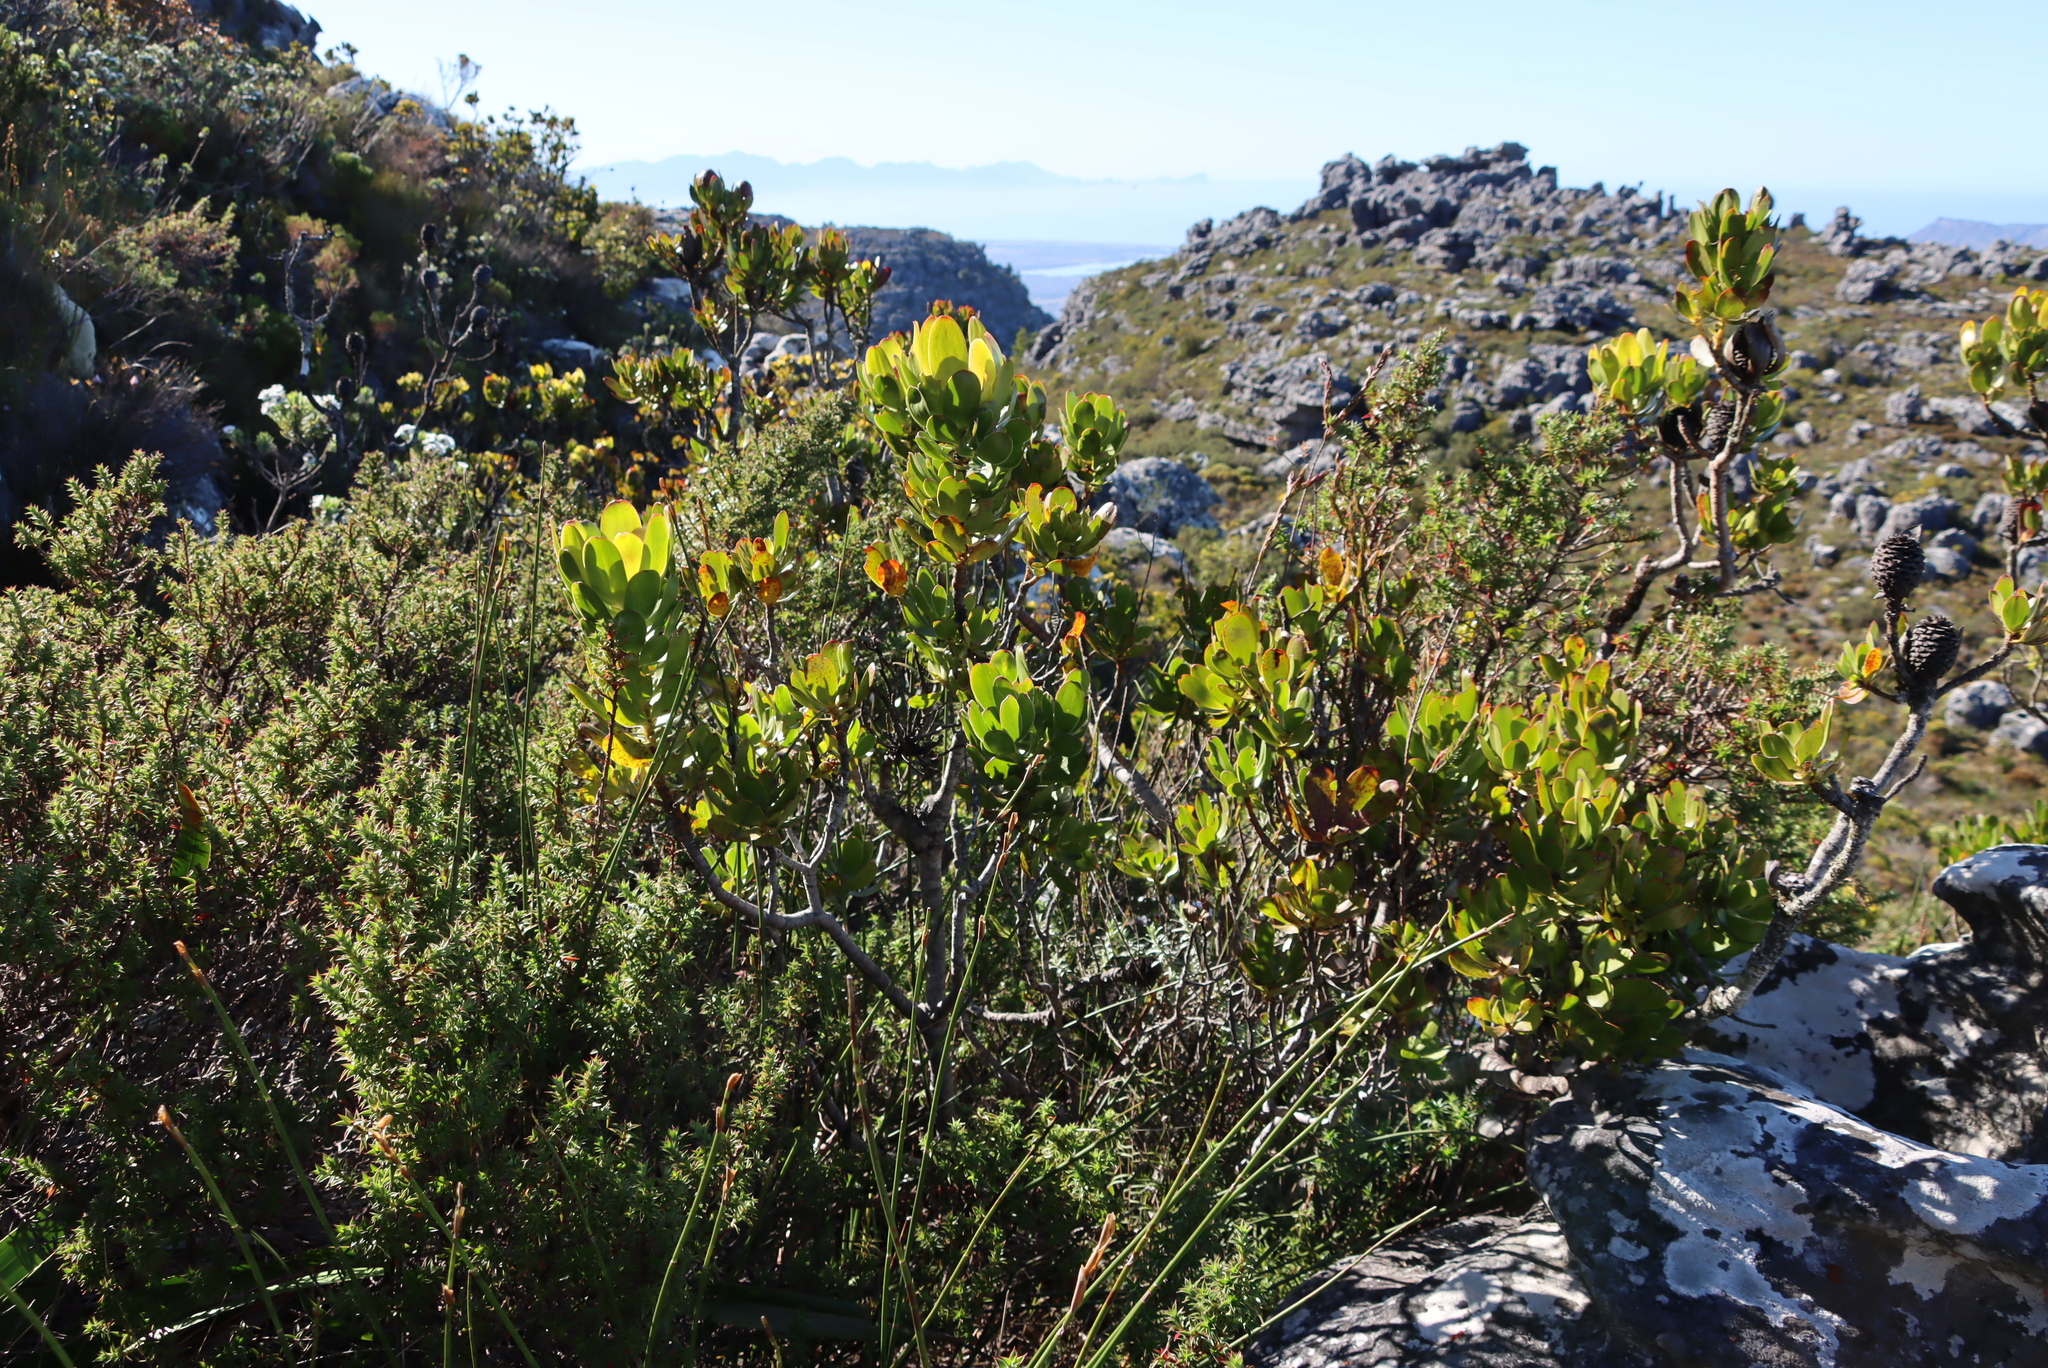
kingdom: Plantae
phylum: Tracheophyta
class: Magnoliopsida
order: Proteales
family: Proteaceae
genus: Leucadendron
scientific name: Leucadendron strobilinum
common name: Mountain rose
